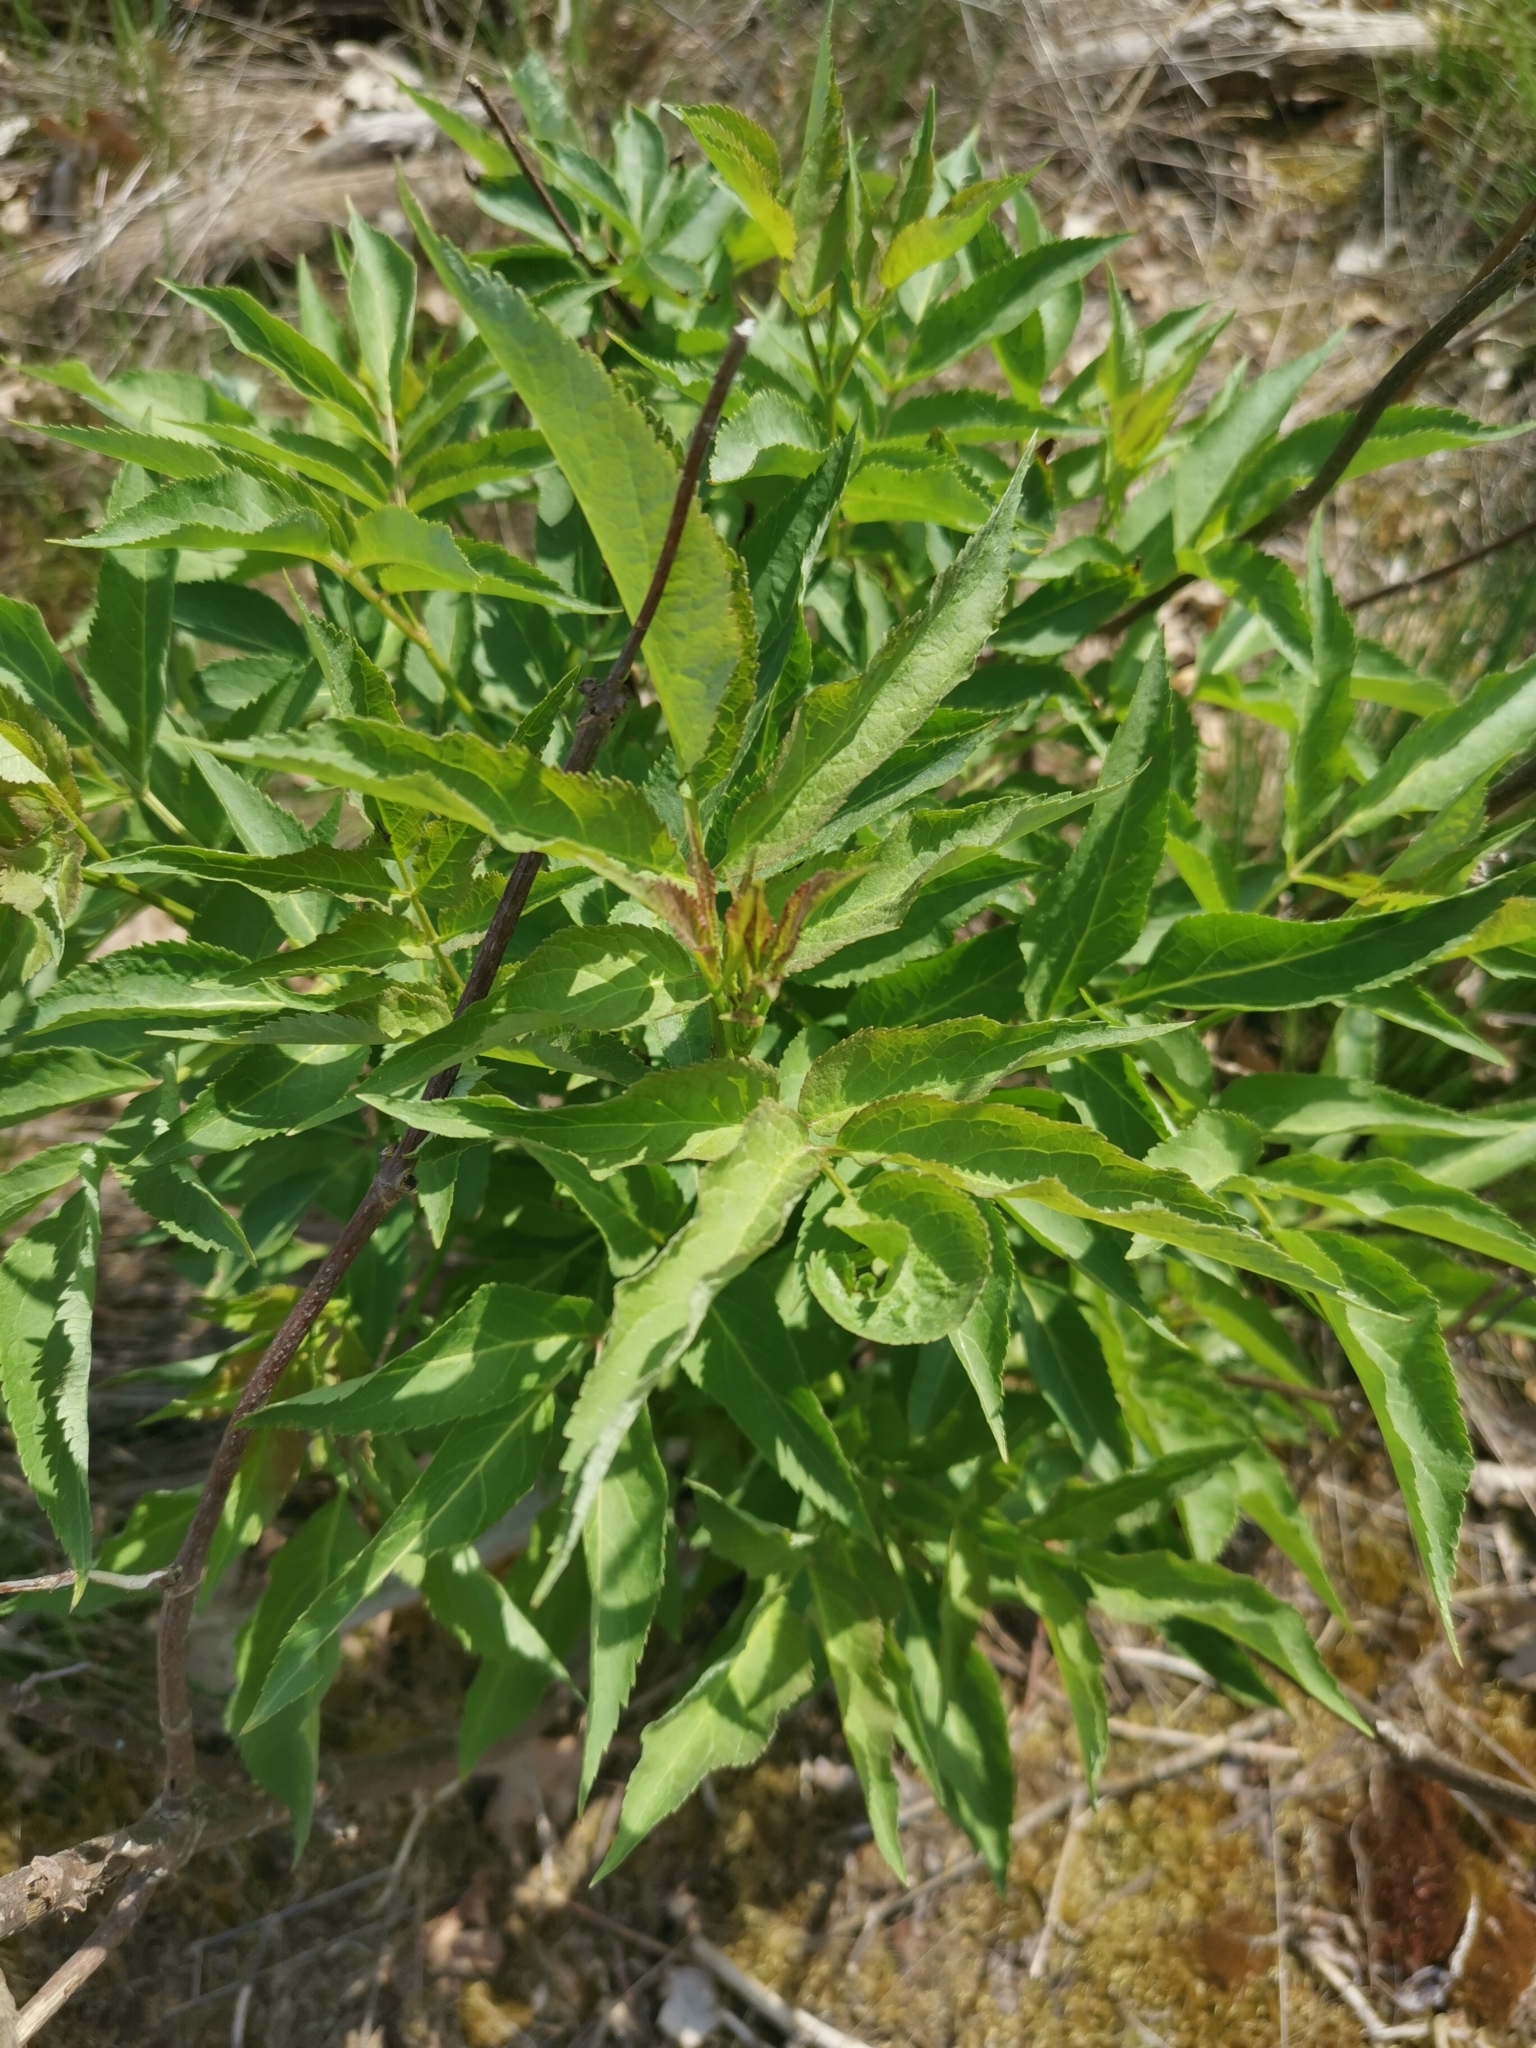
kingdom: Plantae
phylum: Tracheophyta
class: Magnoliopsida
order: Dipsacales
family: Viburnaceae
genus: Sambucus
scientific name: Sambucus racemosa
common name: Red-berried elder
